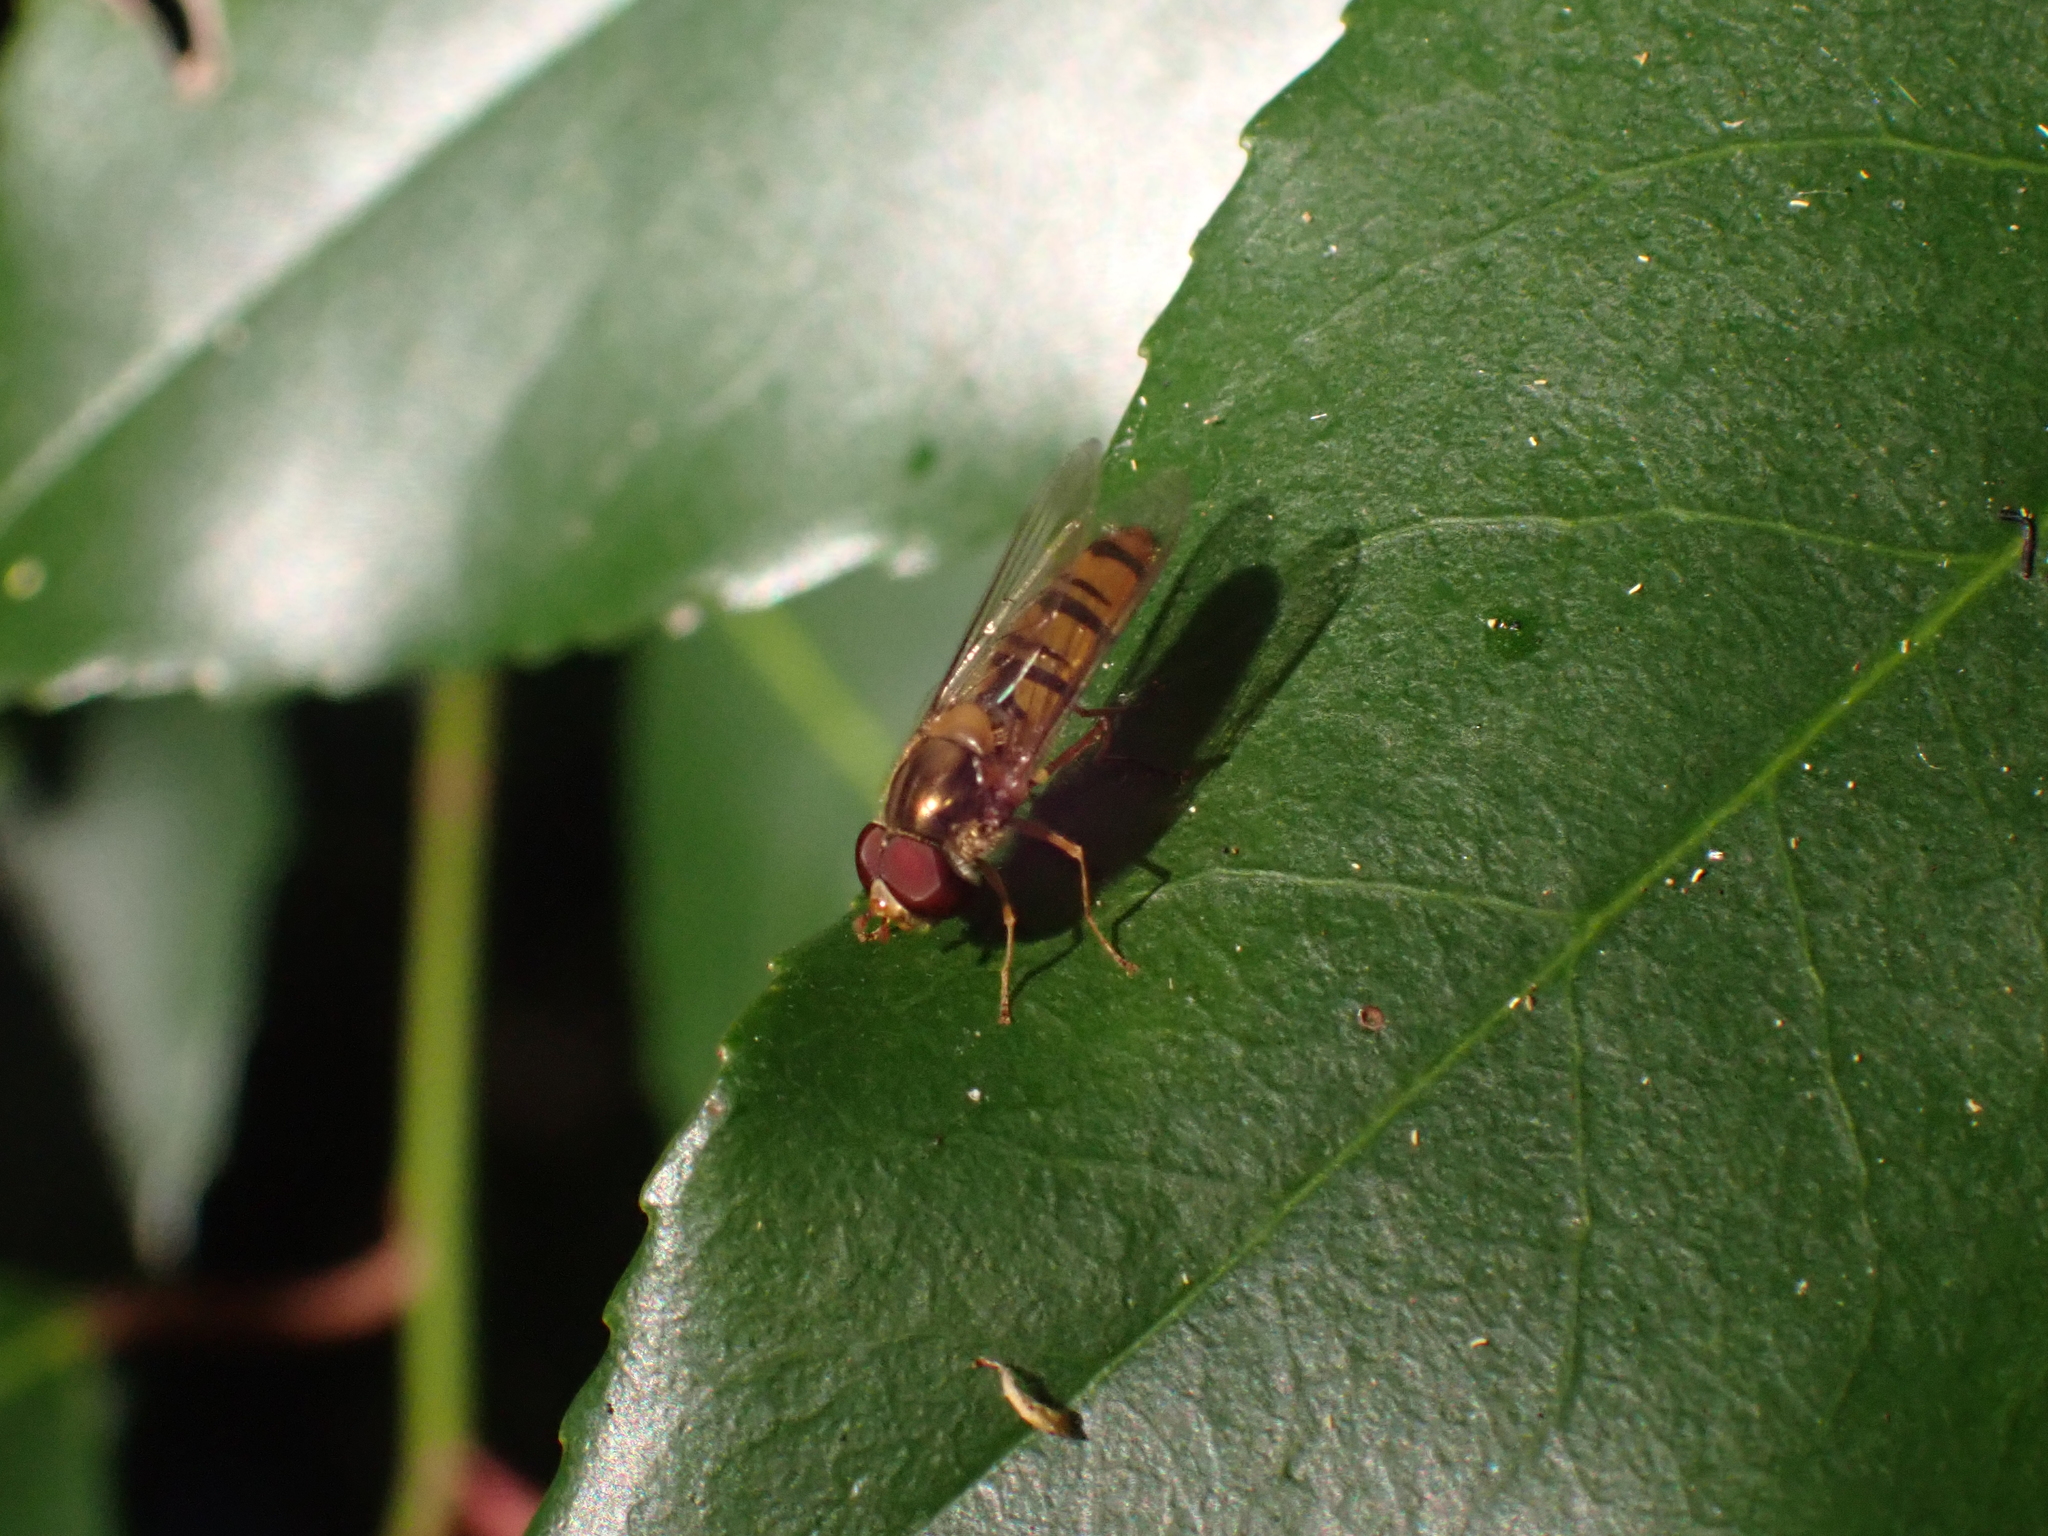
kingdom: Animalia
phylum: Arthropoda
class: Insecta
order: Diptera
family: Syrphidae
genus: Episyrphus
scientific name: Episyrphus balteatus
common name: Marmalade hoverfly
